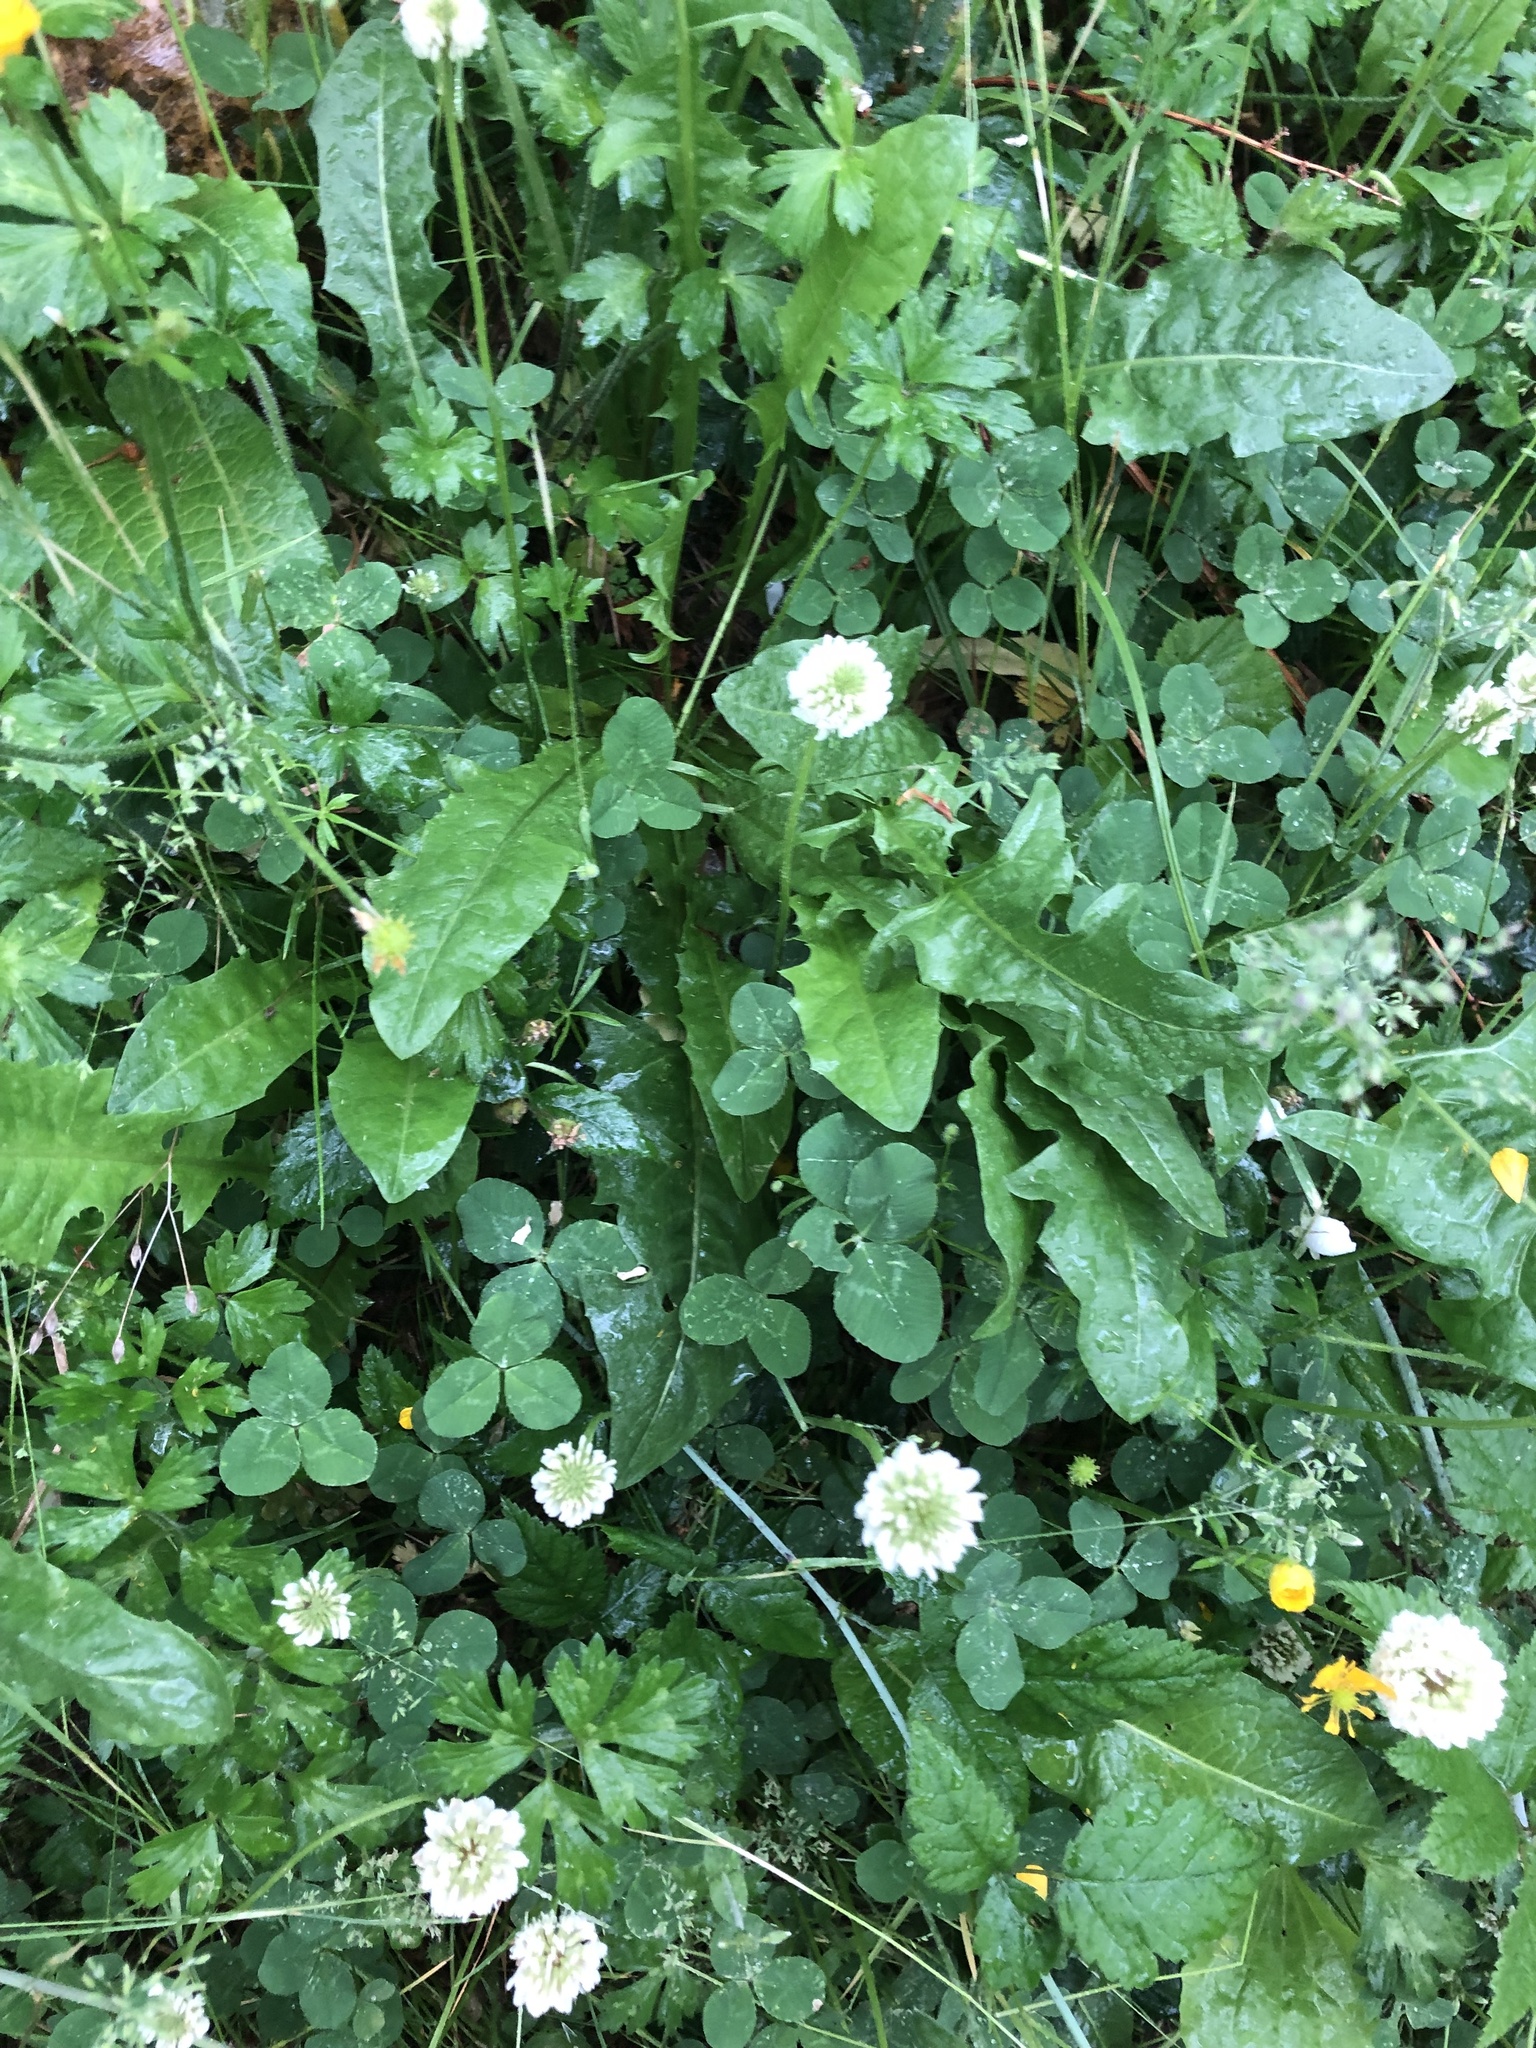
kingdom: Plantae
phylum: Tracheophyta
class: Magnoliopsida
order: Fabales
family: Fabaceae
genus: Trifolium
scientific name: Trifolium repens
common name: White clover
